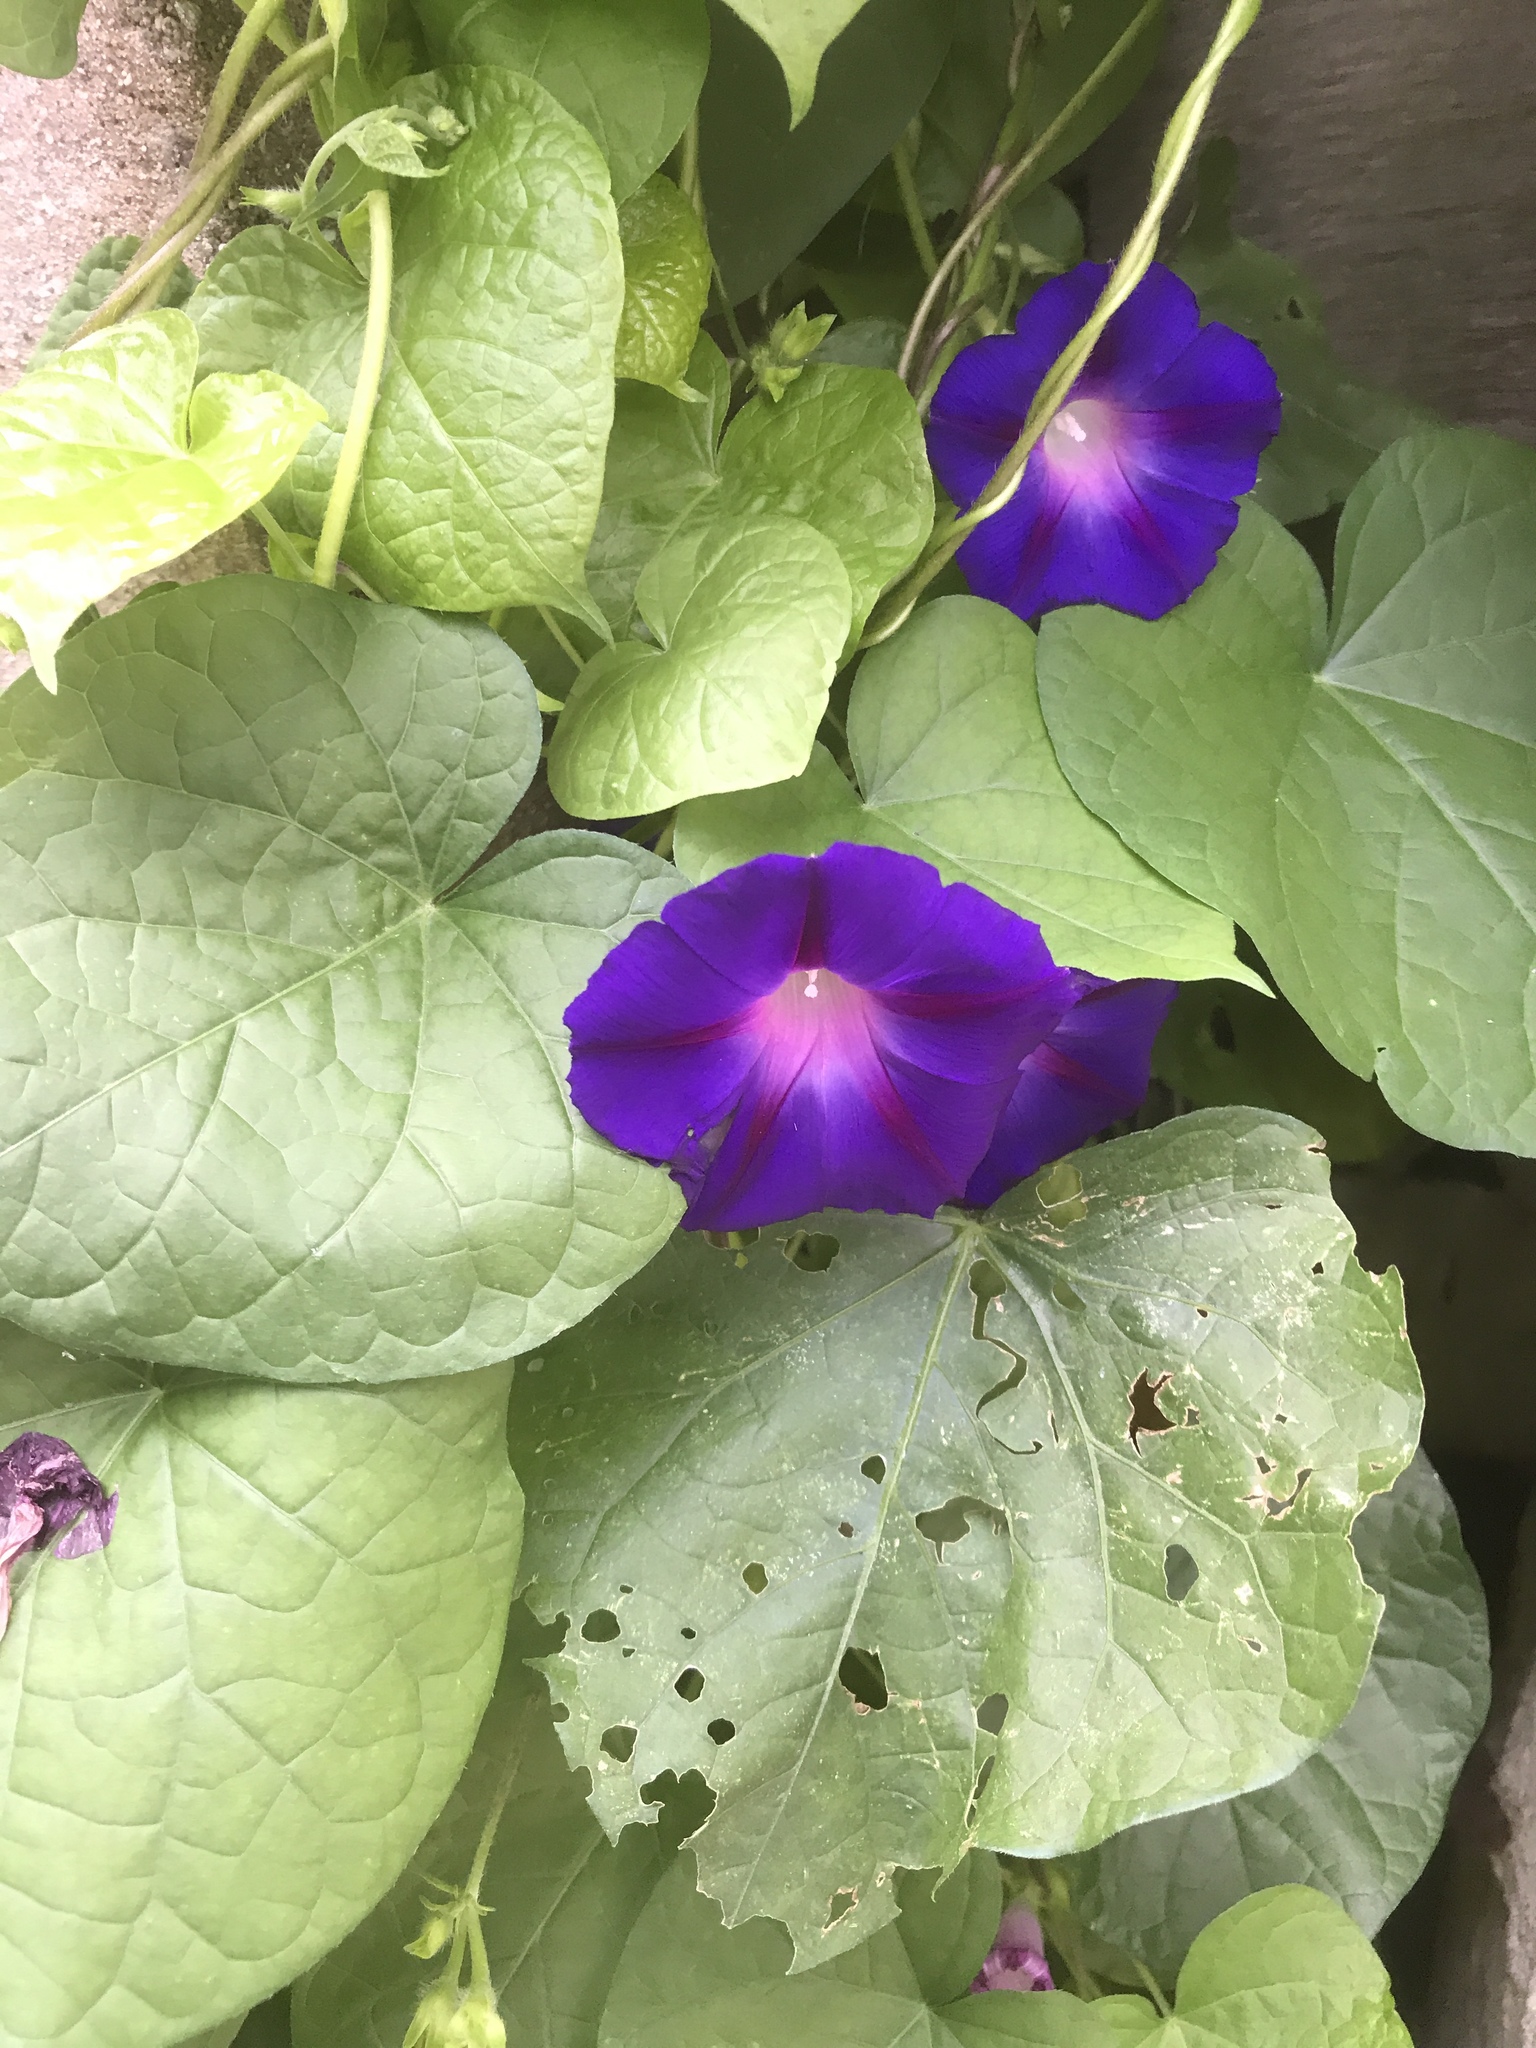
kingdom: Plantae
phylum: Tracheophyta
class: Magnoliopsida
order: Solanales
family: Convolvulaceae
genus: Ipomoea
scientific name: Ipomoea purpurea
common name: Common morning-glory
